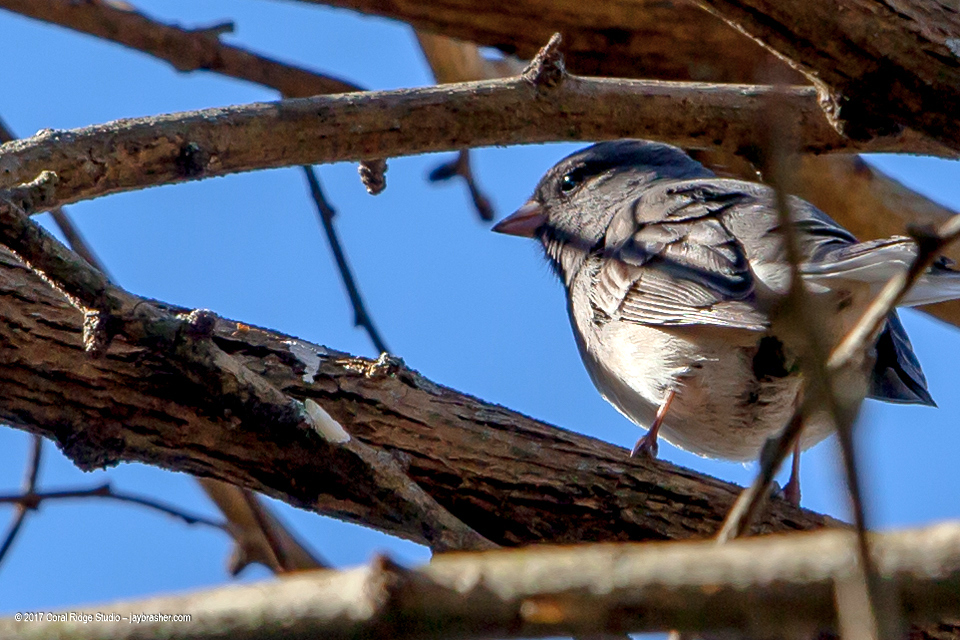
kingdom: Animalia
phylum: Chordata
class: Aves
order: Passeriformes
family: Passerellidae
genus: Junco
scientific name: Junco hyemalis
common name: Dark-eyed junco
